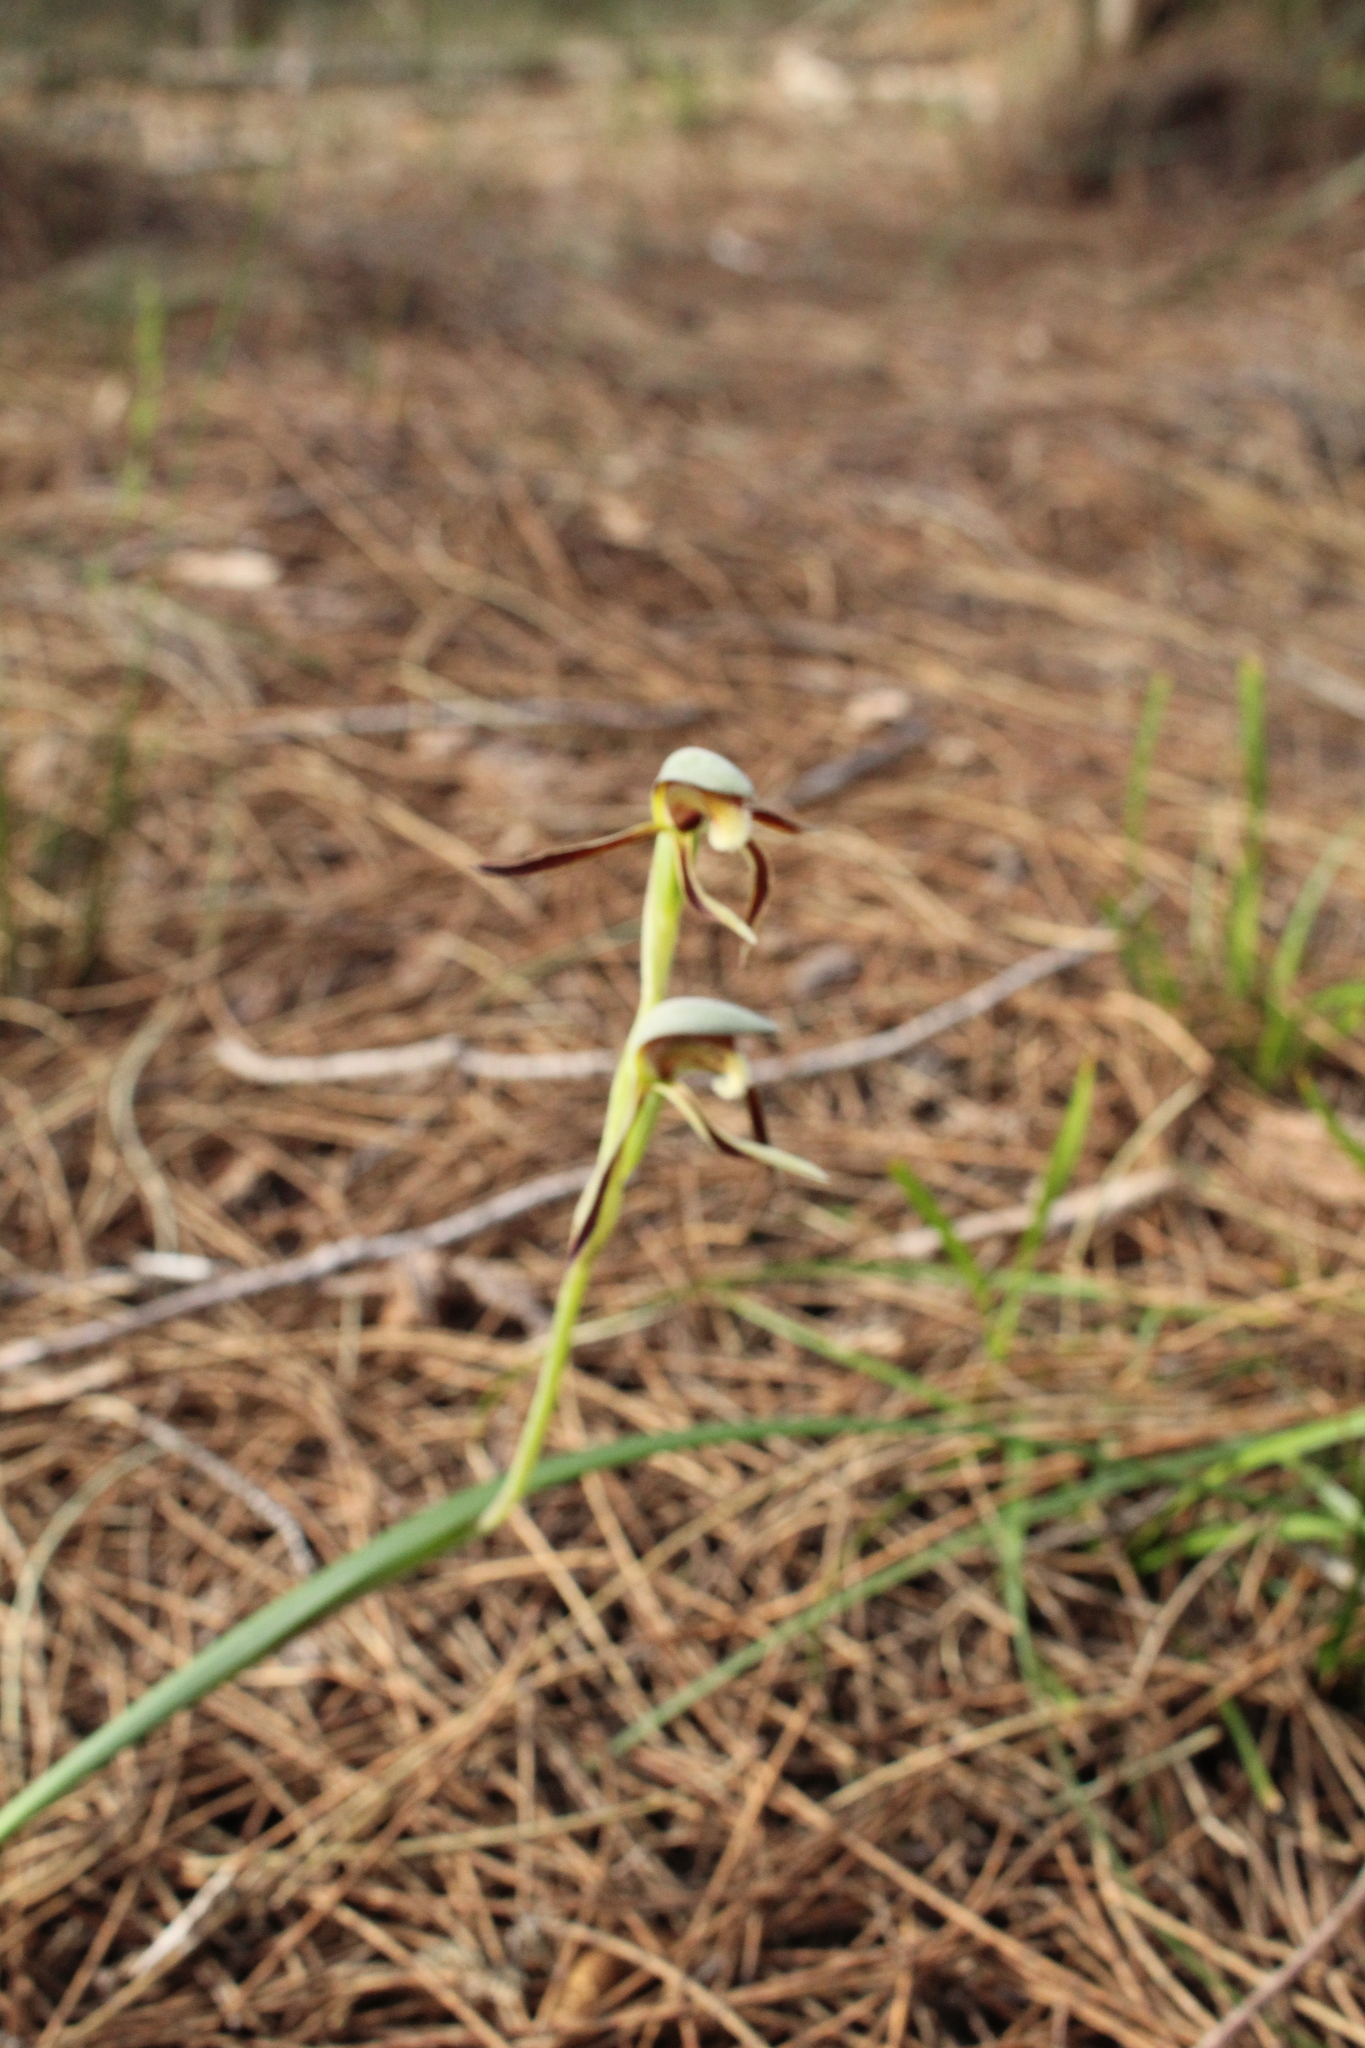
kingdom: Plantae
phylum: Tracheophyta
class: Liliopsida
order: Asparagales
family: Orchidaceae
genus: Lyperanthus
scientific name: Lyperanthus serratus
